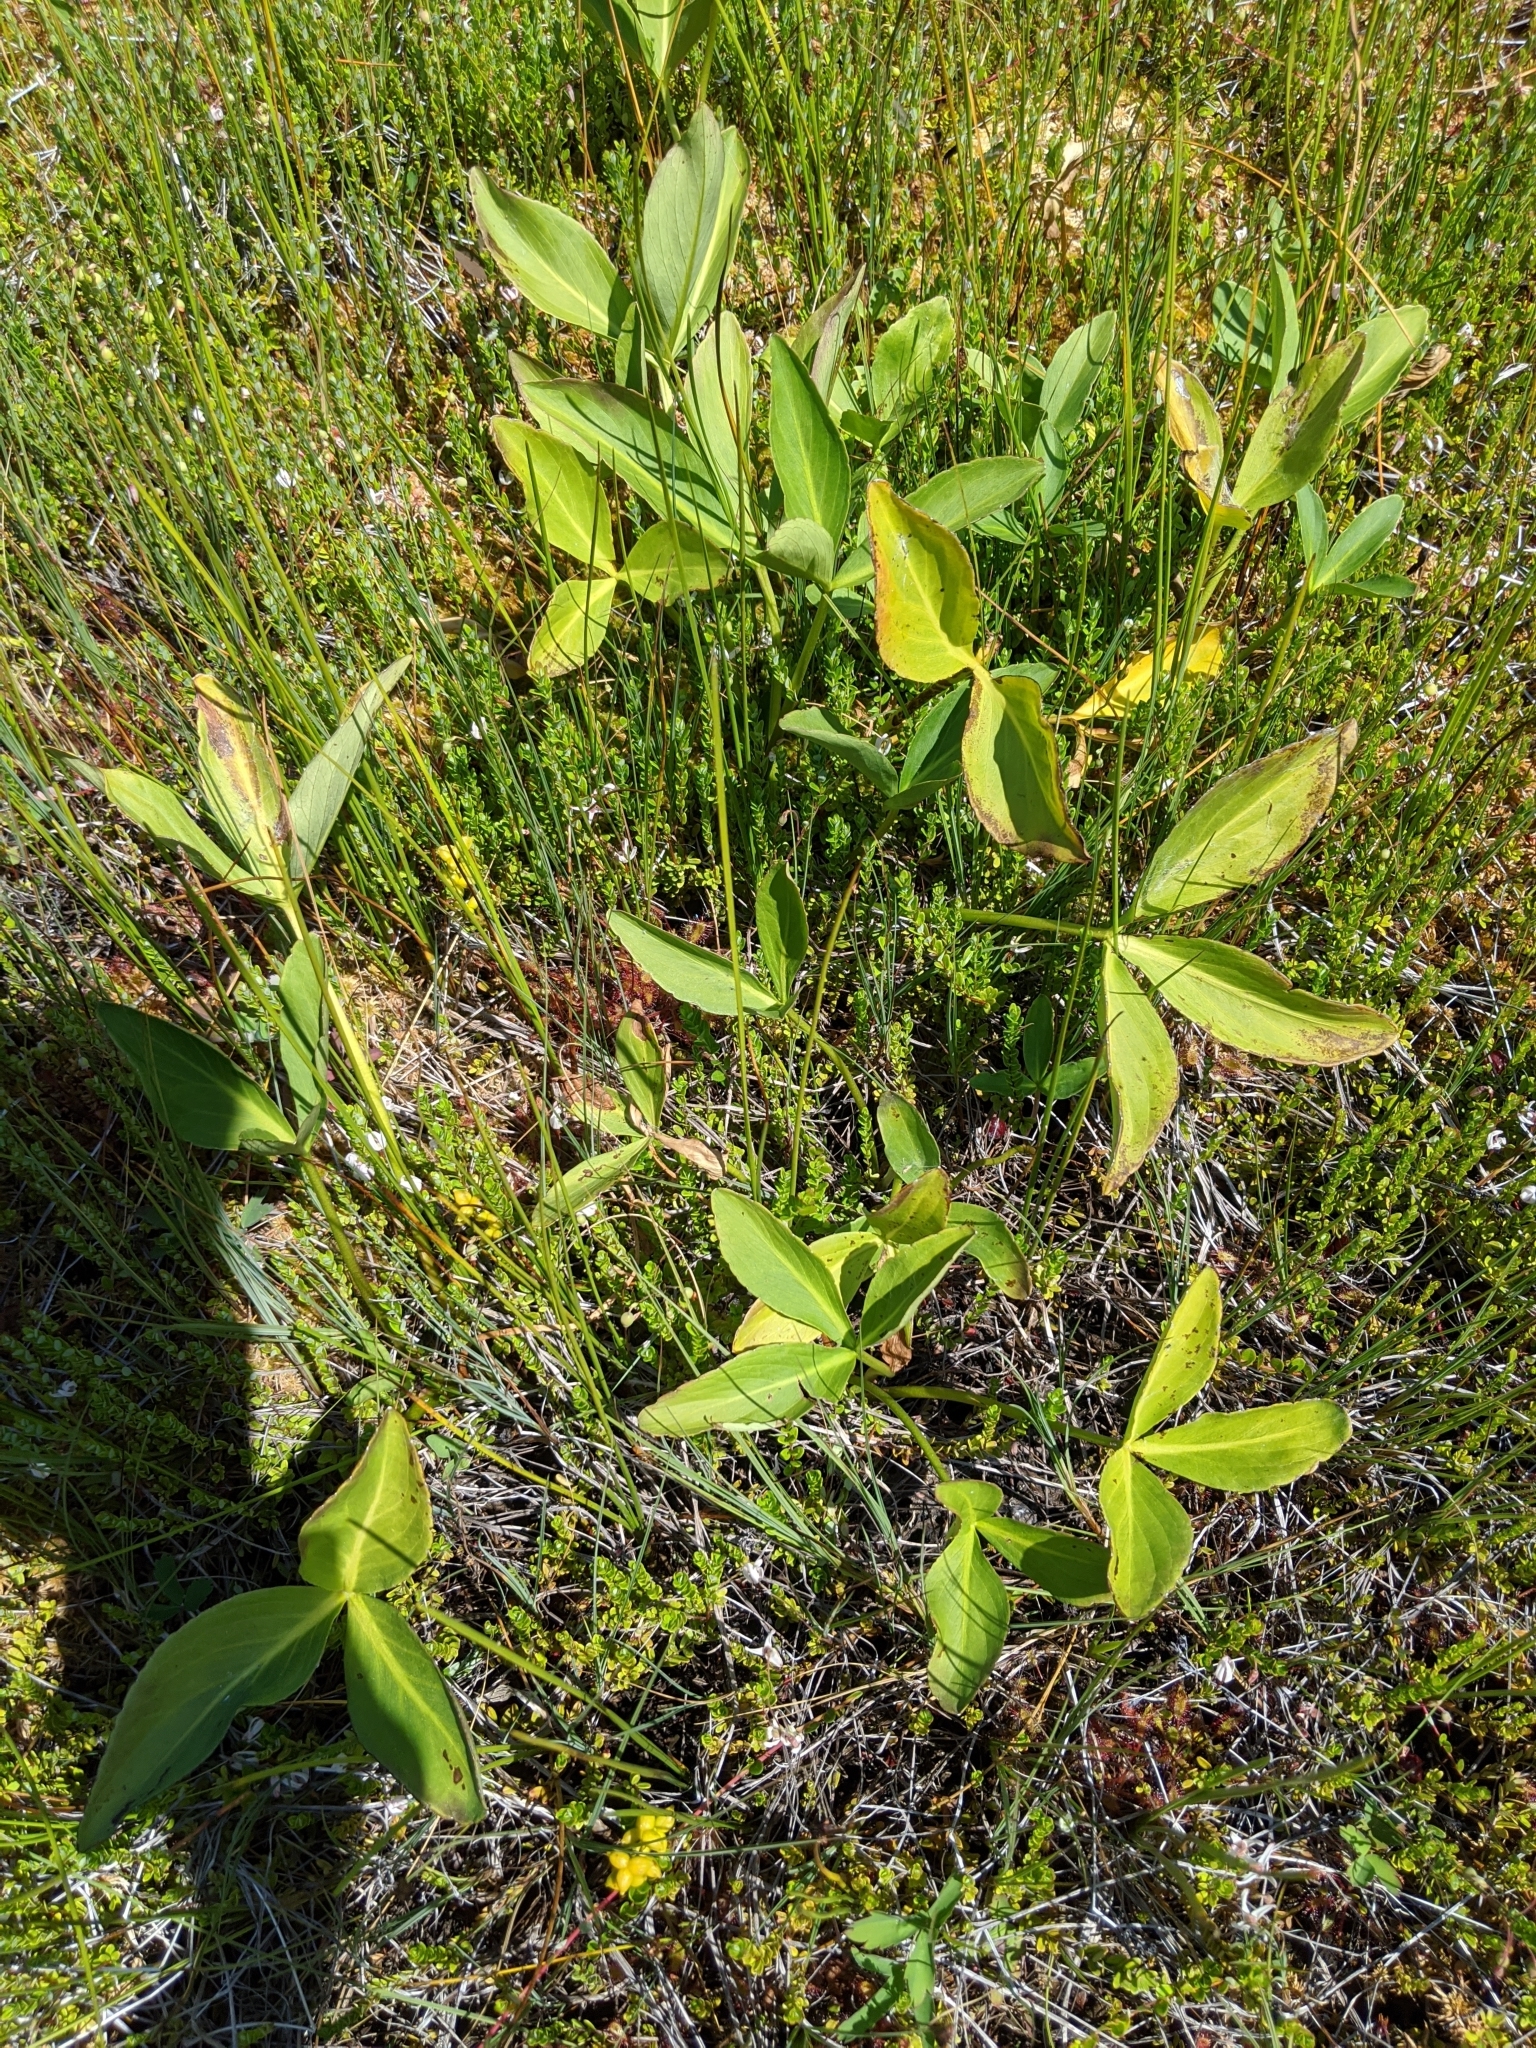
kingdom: Plantae
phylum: Tracheophyta
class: Magnoliopsida
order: Asterales
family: Menyanthaceae
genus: Menyanthes
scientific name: Menyanthes trifoliata
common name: Bogbean
